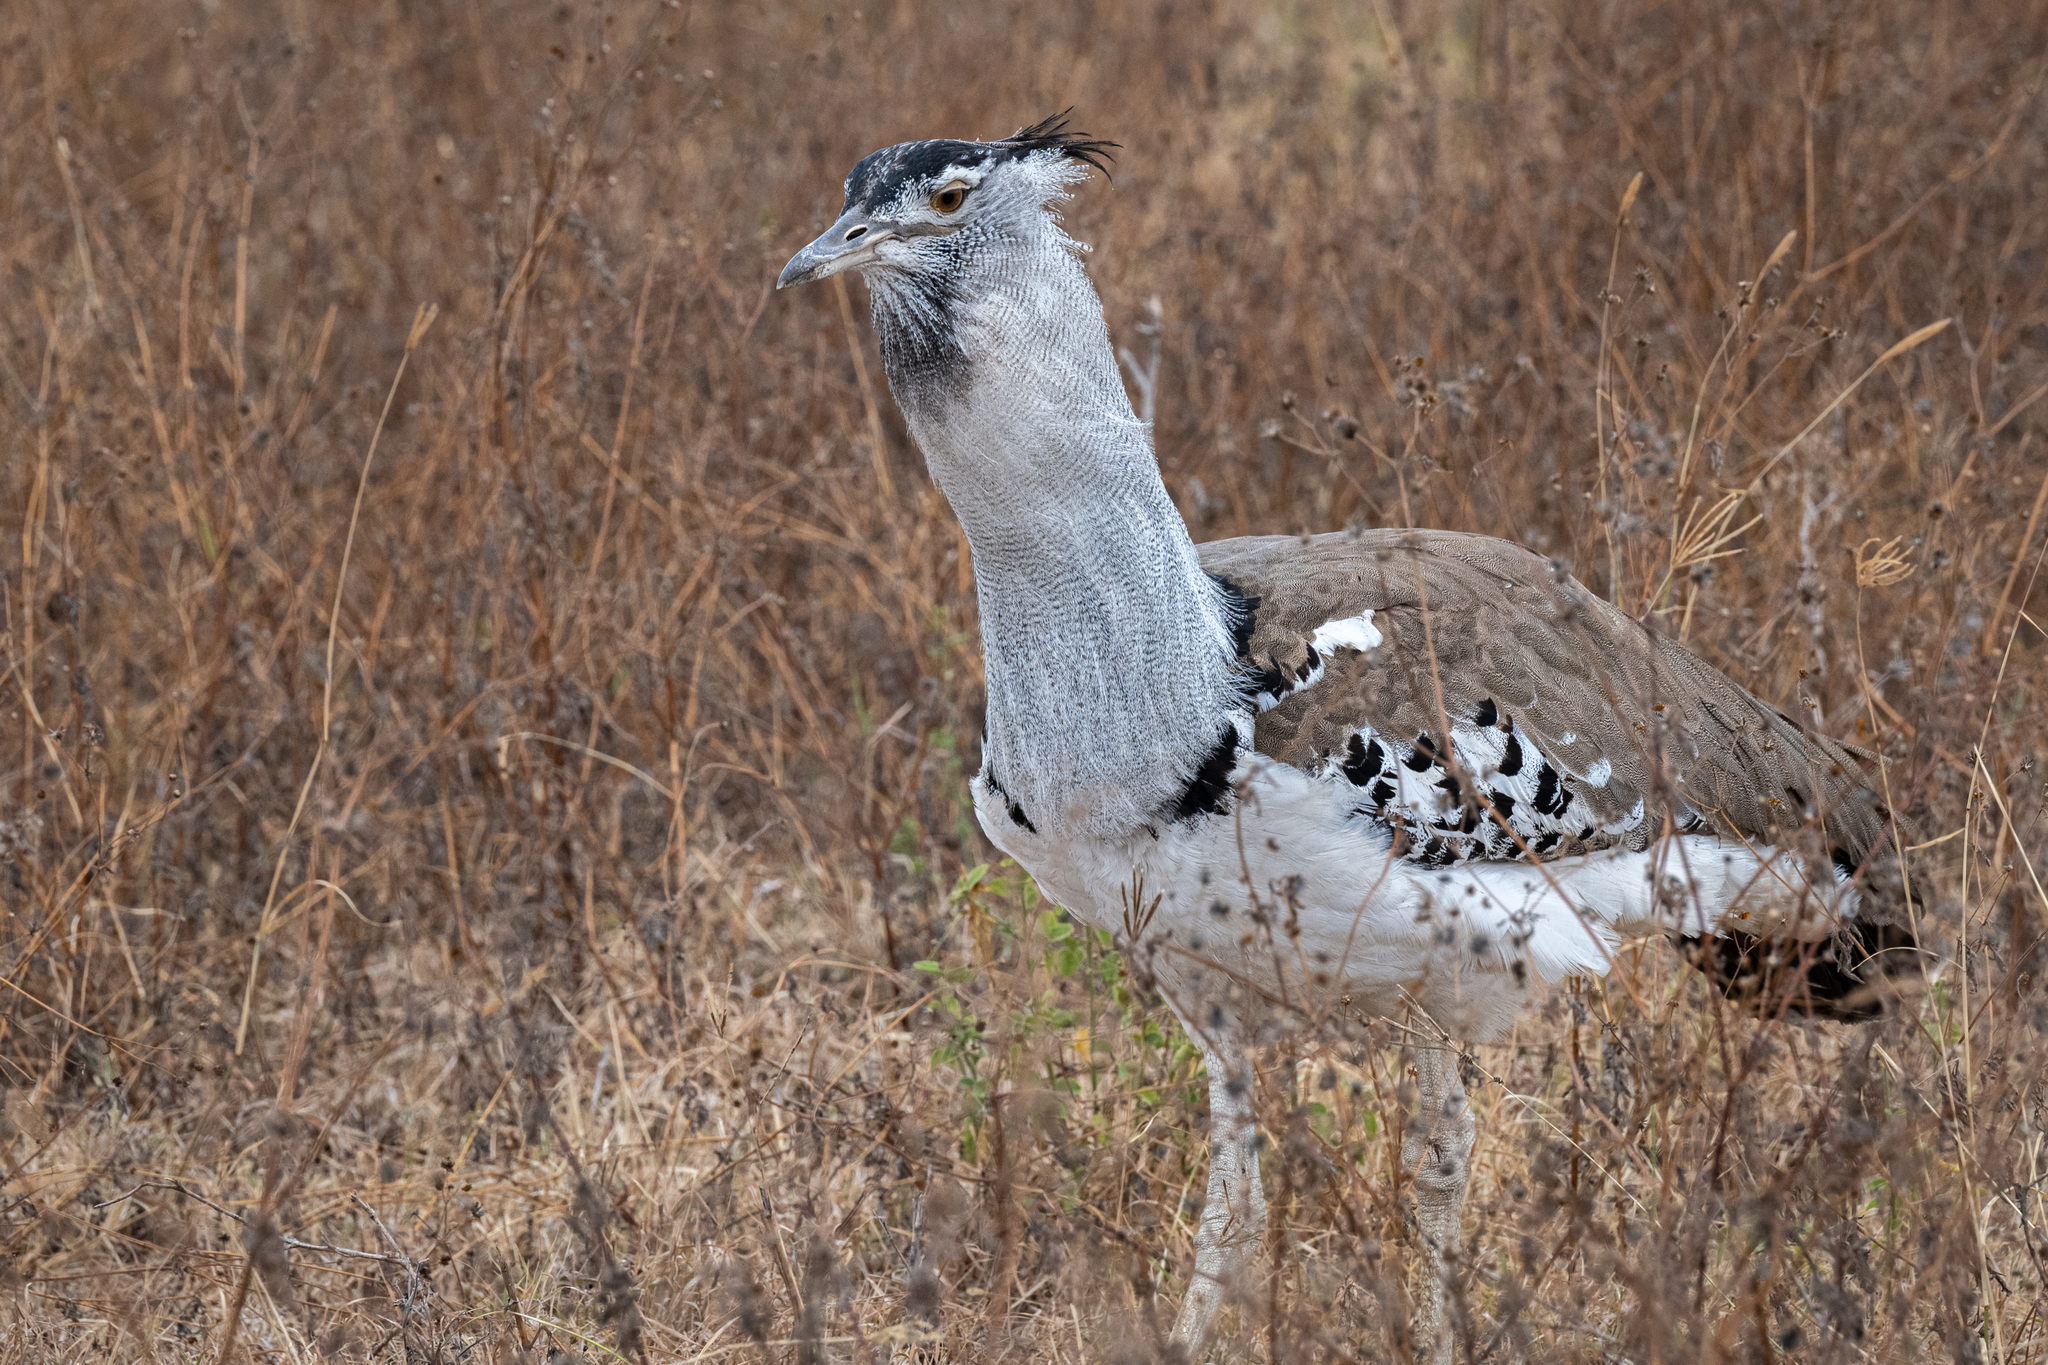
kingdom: Animalia
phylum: Chordata
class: Aves
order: Otidiformes
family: Otididae
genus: Ardeotis
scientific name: Ardeotis kori
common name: Kori bustard
